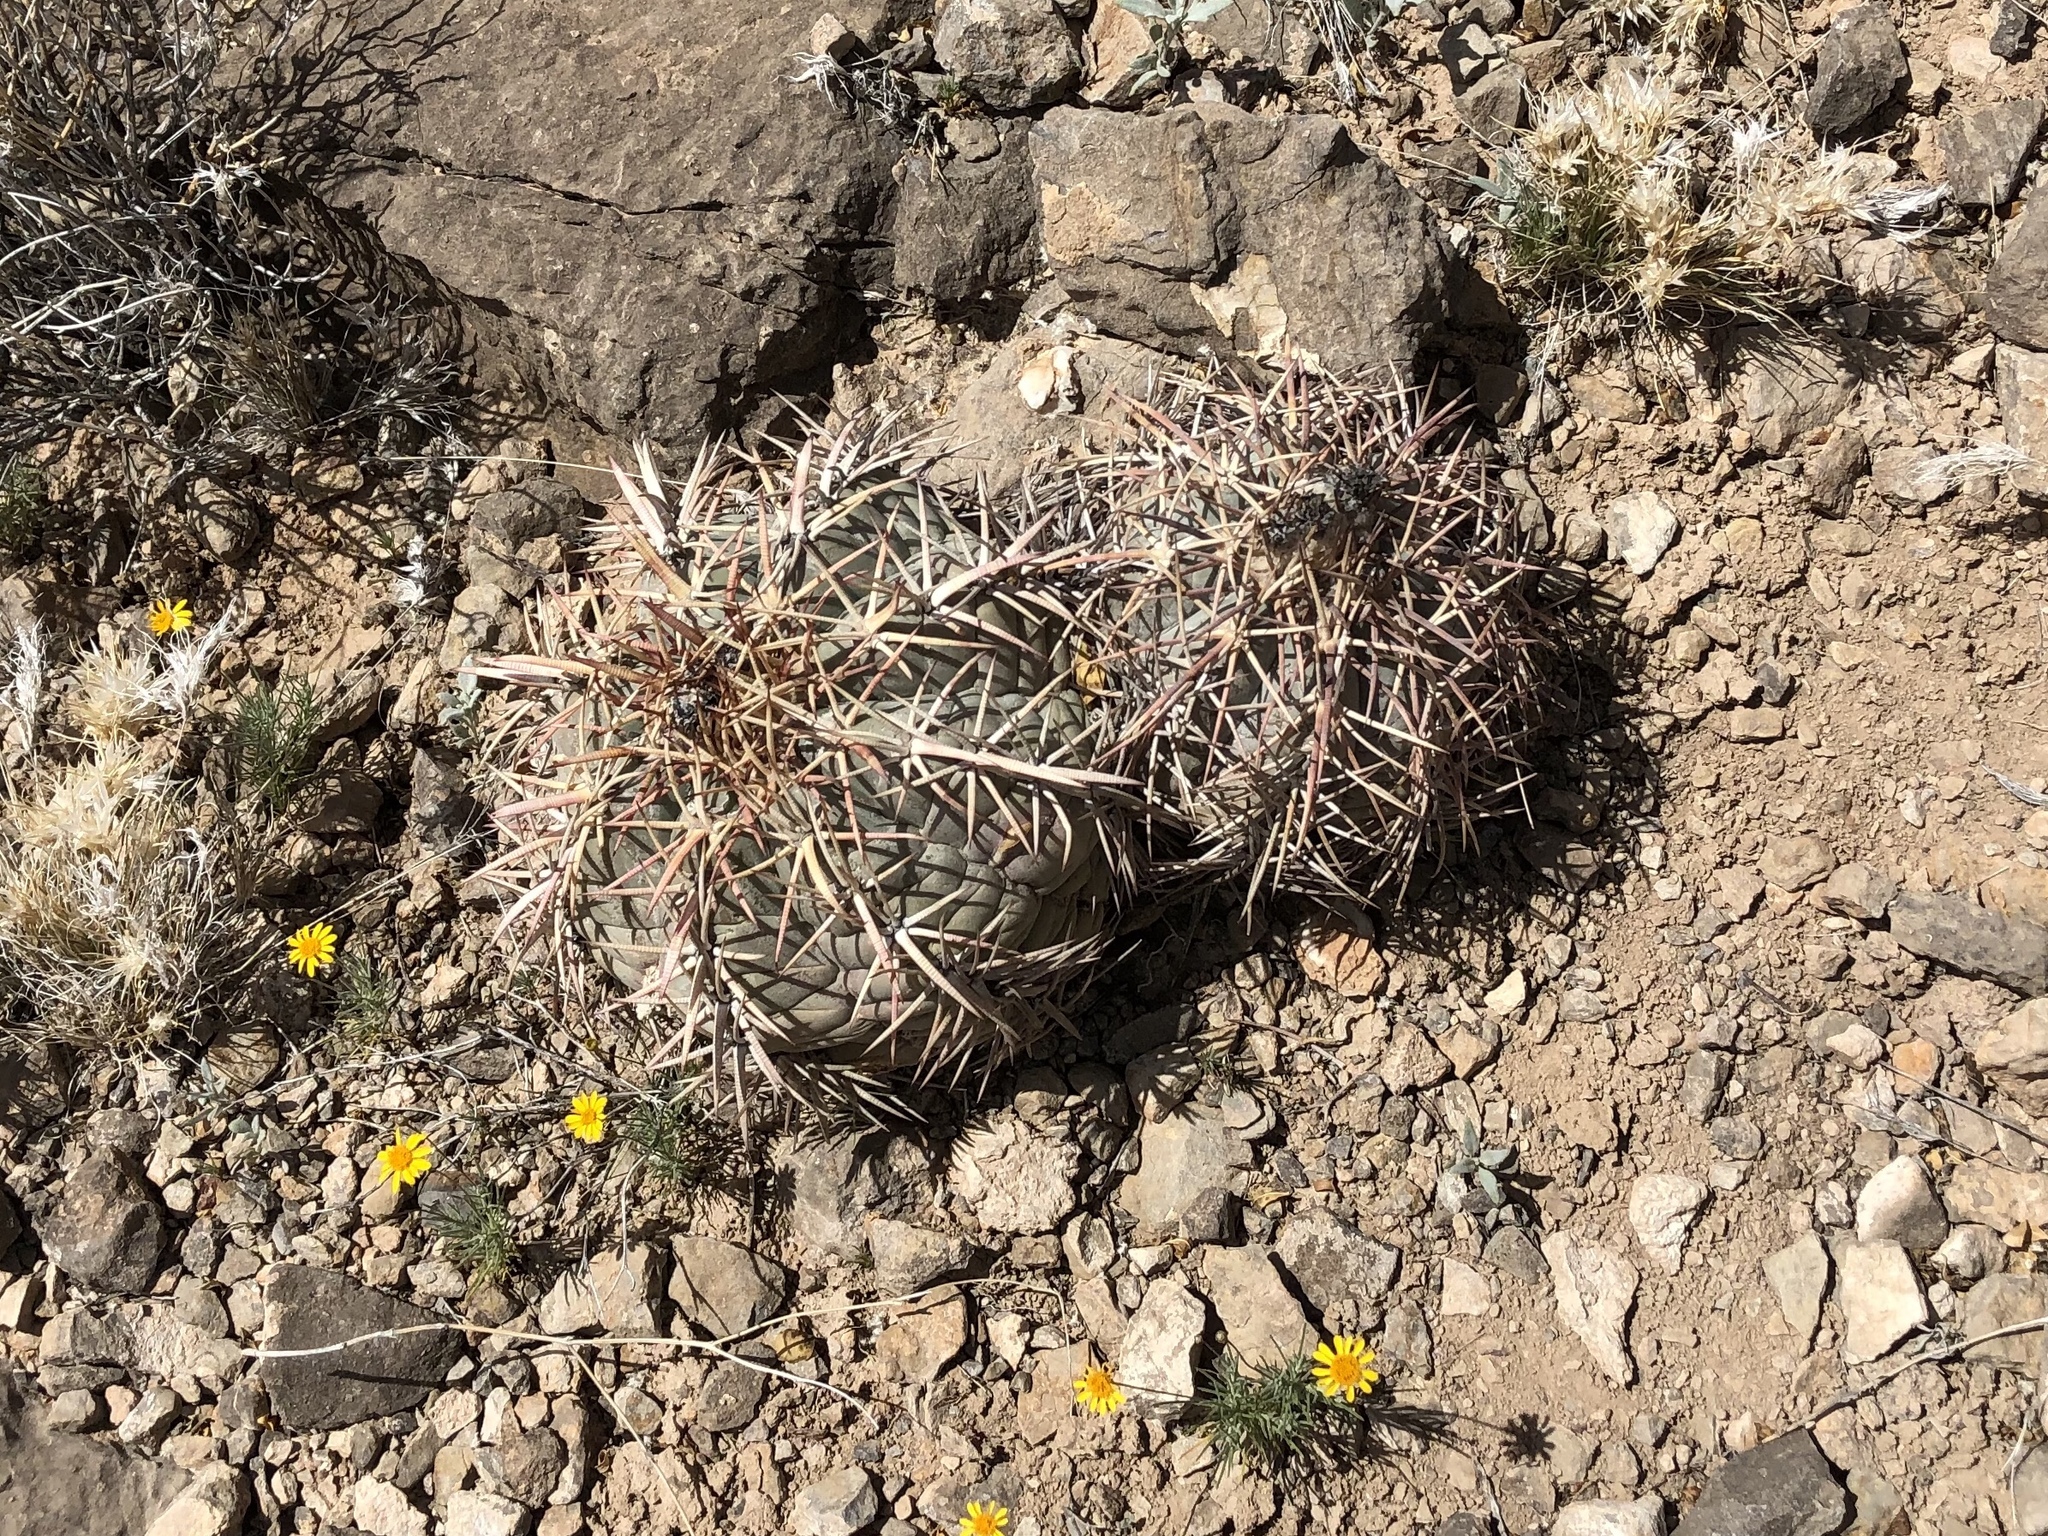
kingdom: Plantae
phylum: Tracheophyta
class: Magnoliopsida
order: Caryophyllales
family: Cactaceae
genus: Echinocactus
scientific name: Echinocactus horizonthalonius
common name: Devilshead
